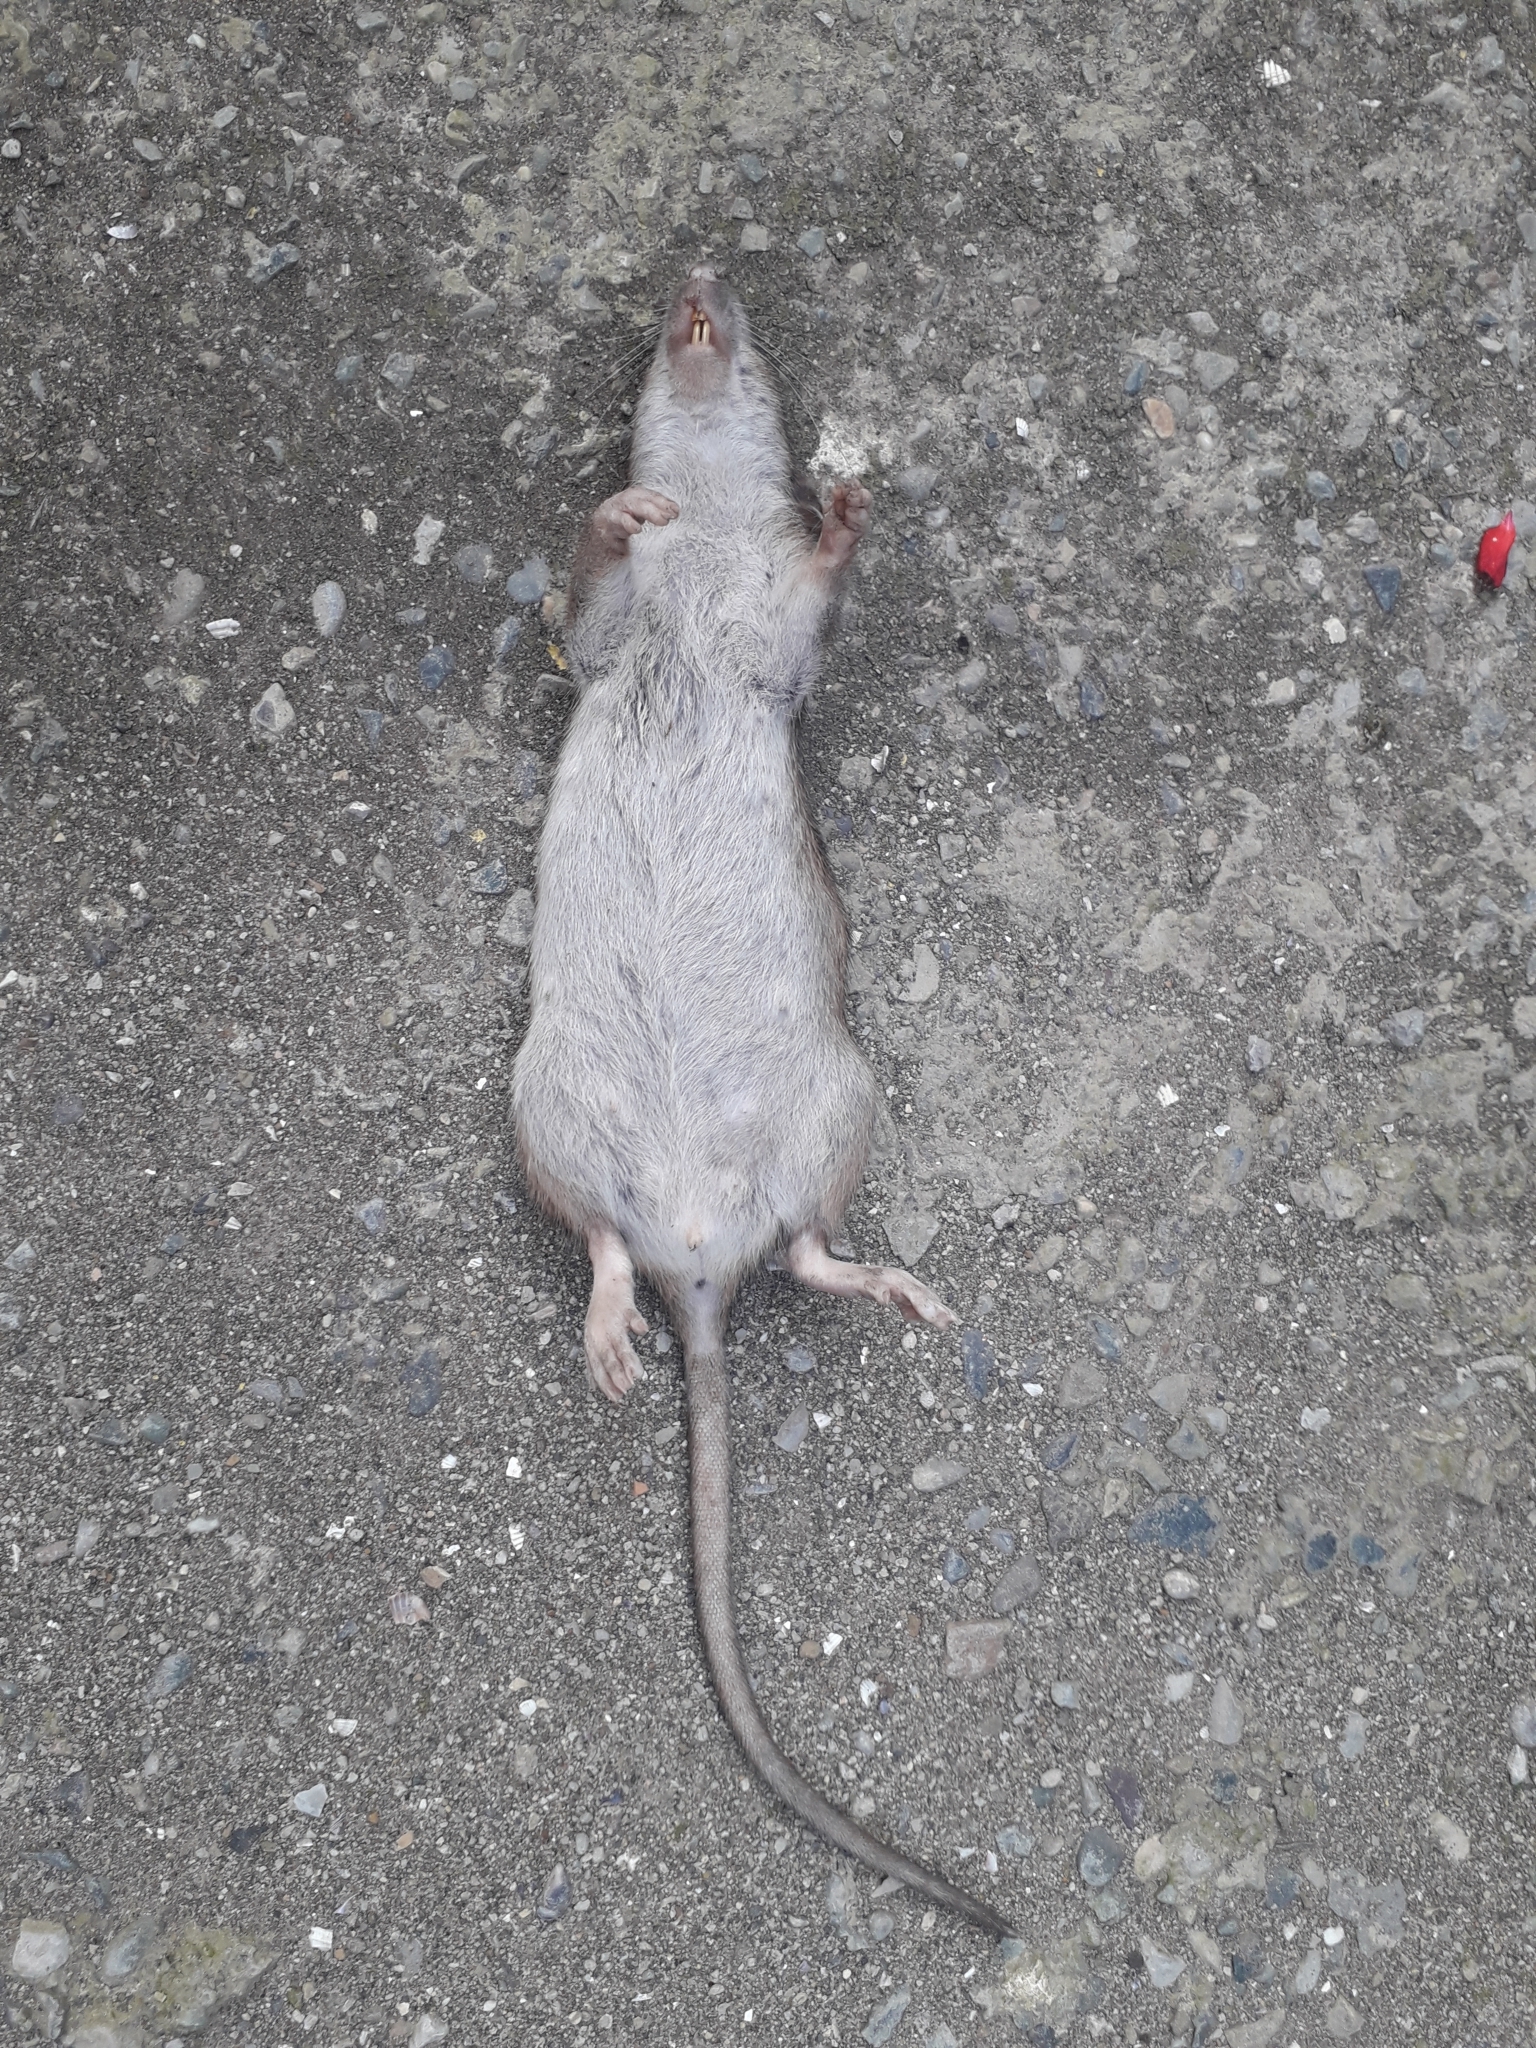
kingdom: Animalia
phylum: Chordata
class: Mammalia
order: Rodentia
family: Muridae
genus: Mus
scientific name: Mus musculus
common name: House mouse
